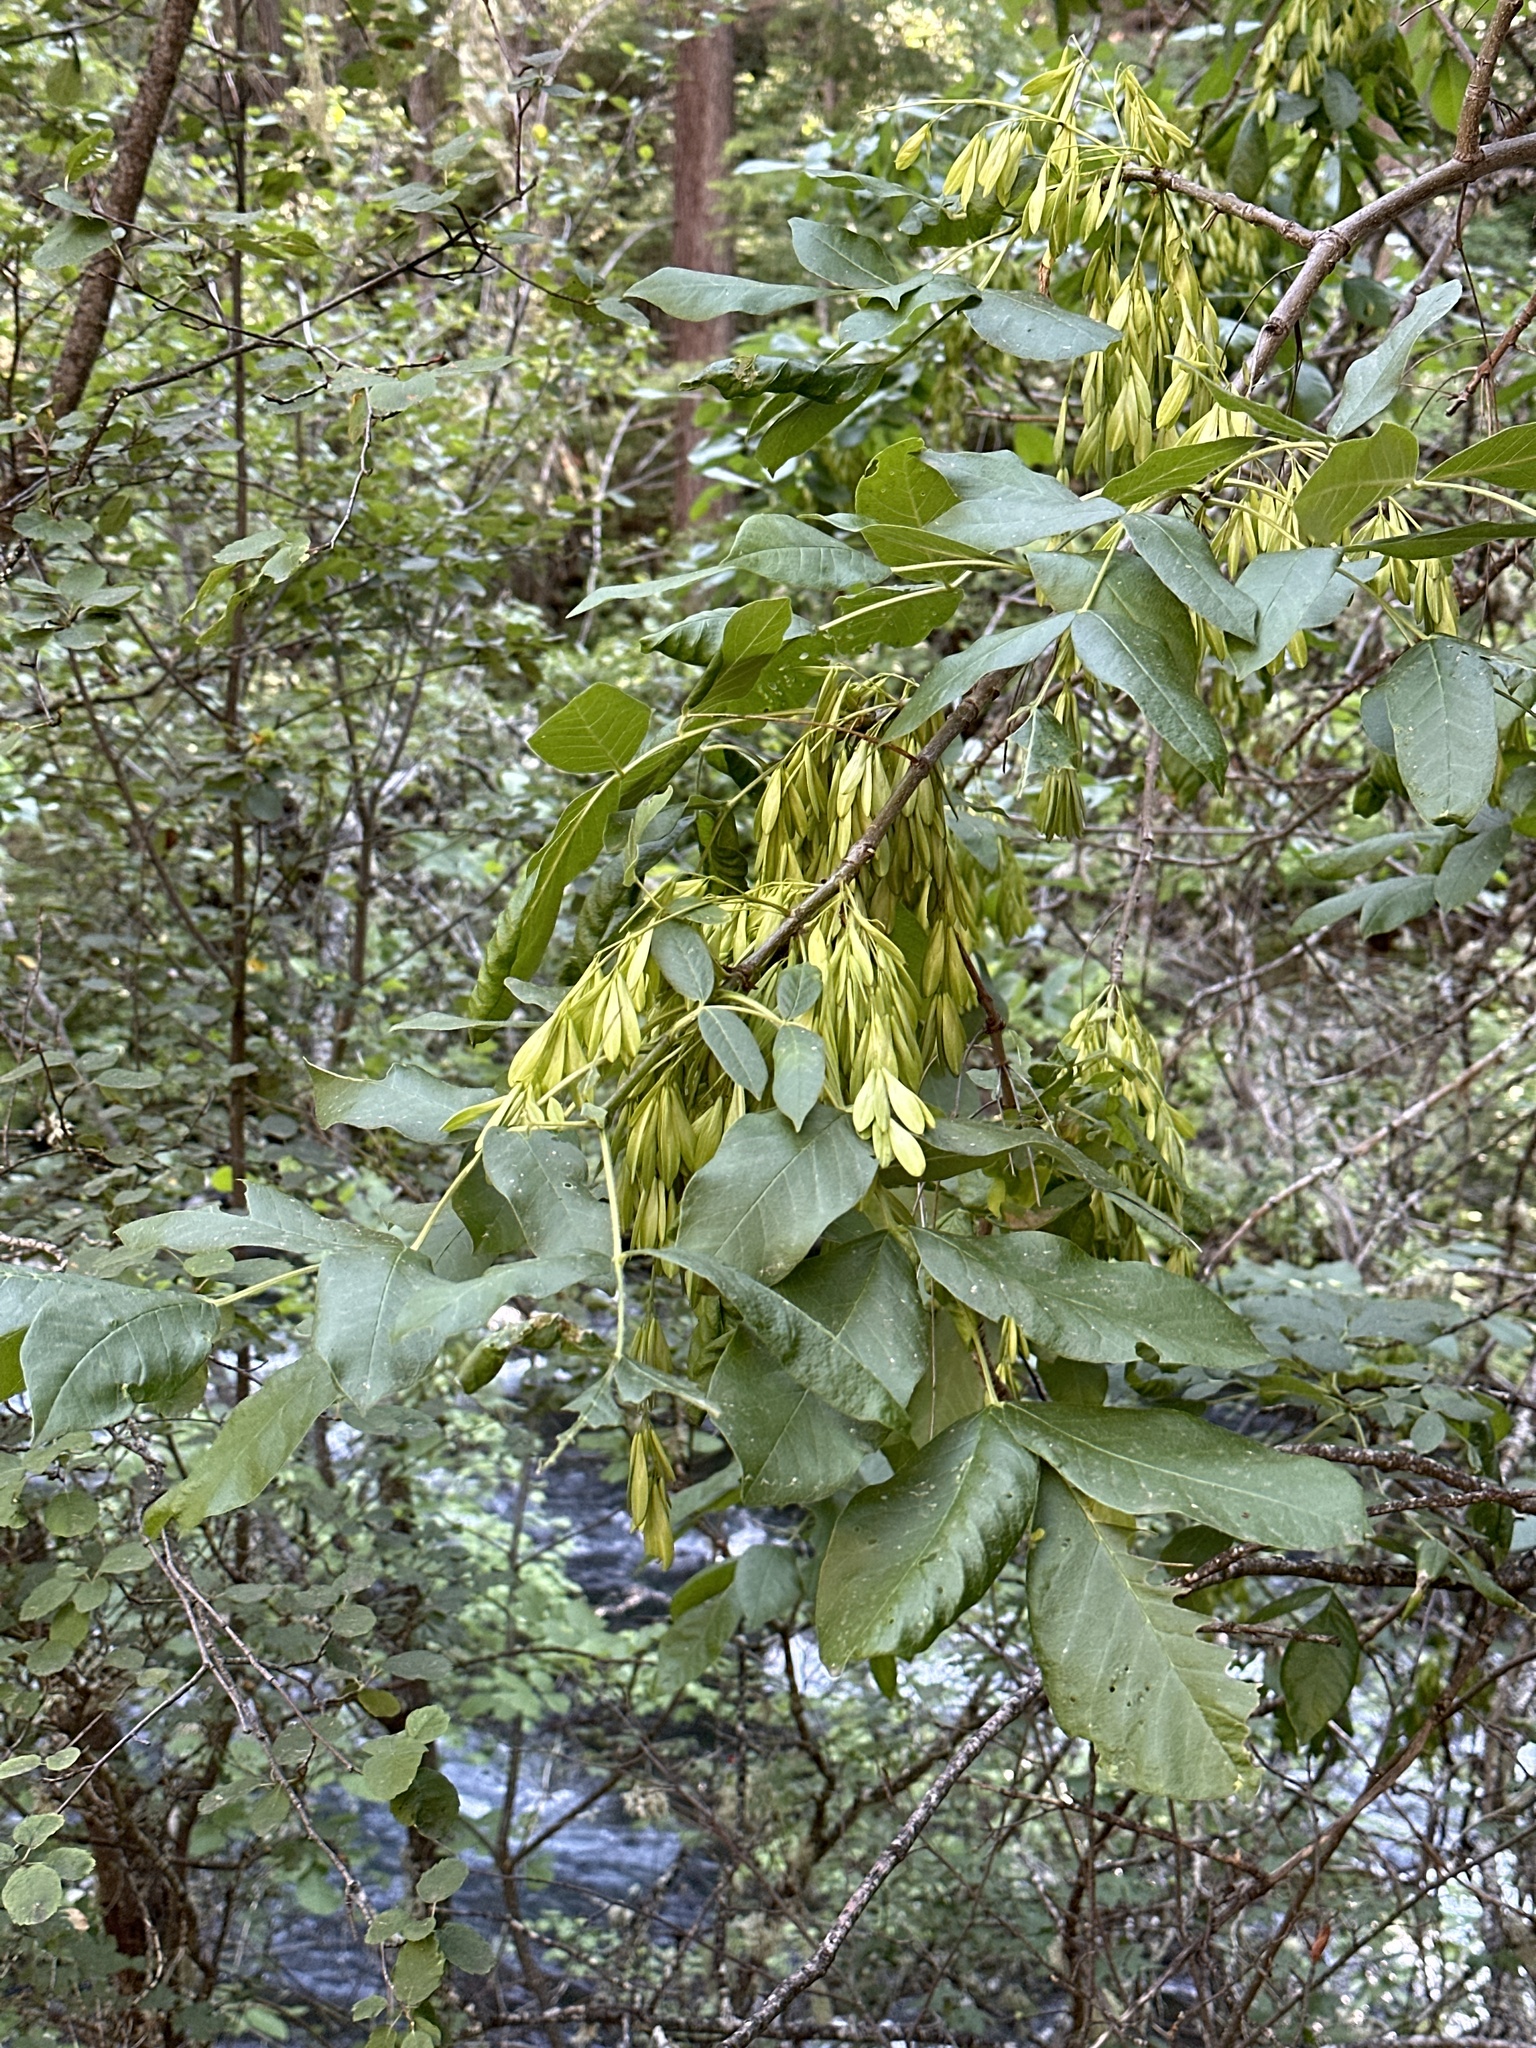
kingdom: Plantae
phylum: Tracheophyta
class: Magnoliopsida
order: Lamiales
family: Oleaceae
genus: Fraxinus
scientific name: Fraxinus latifolia
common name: Oregon ash
